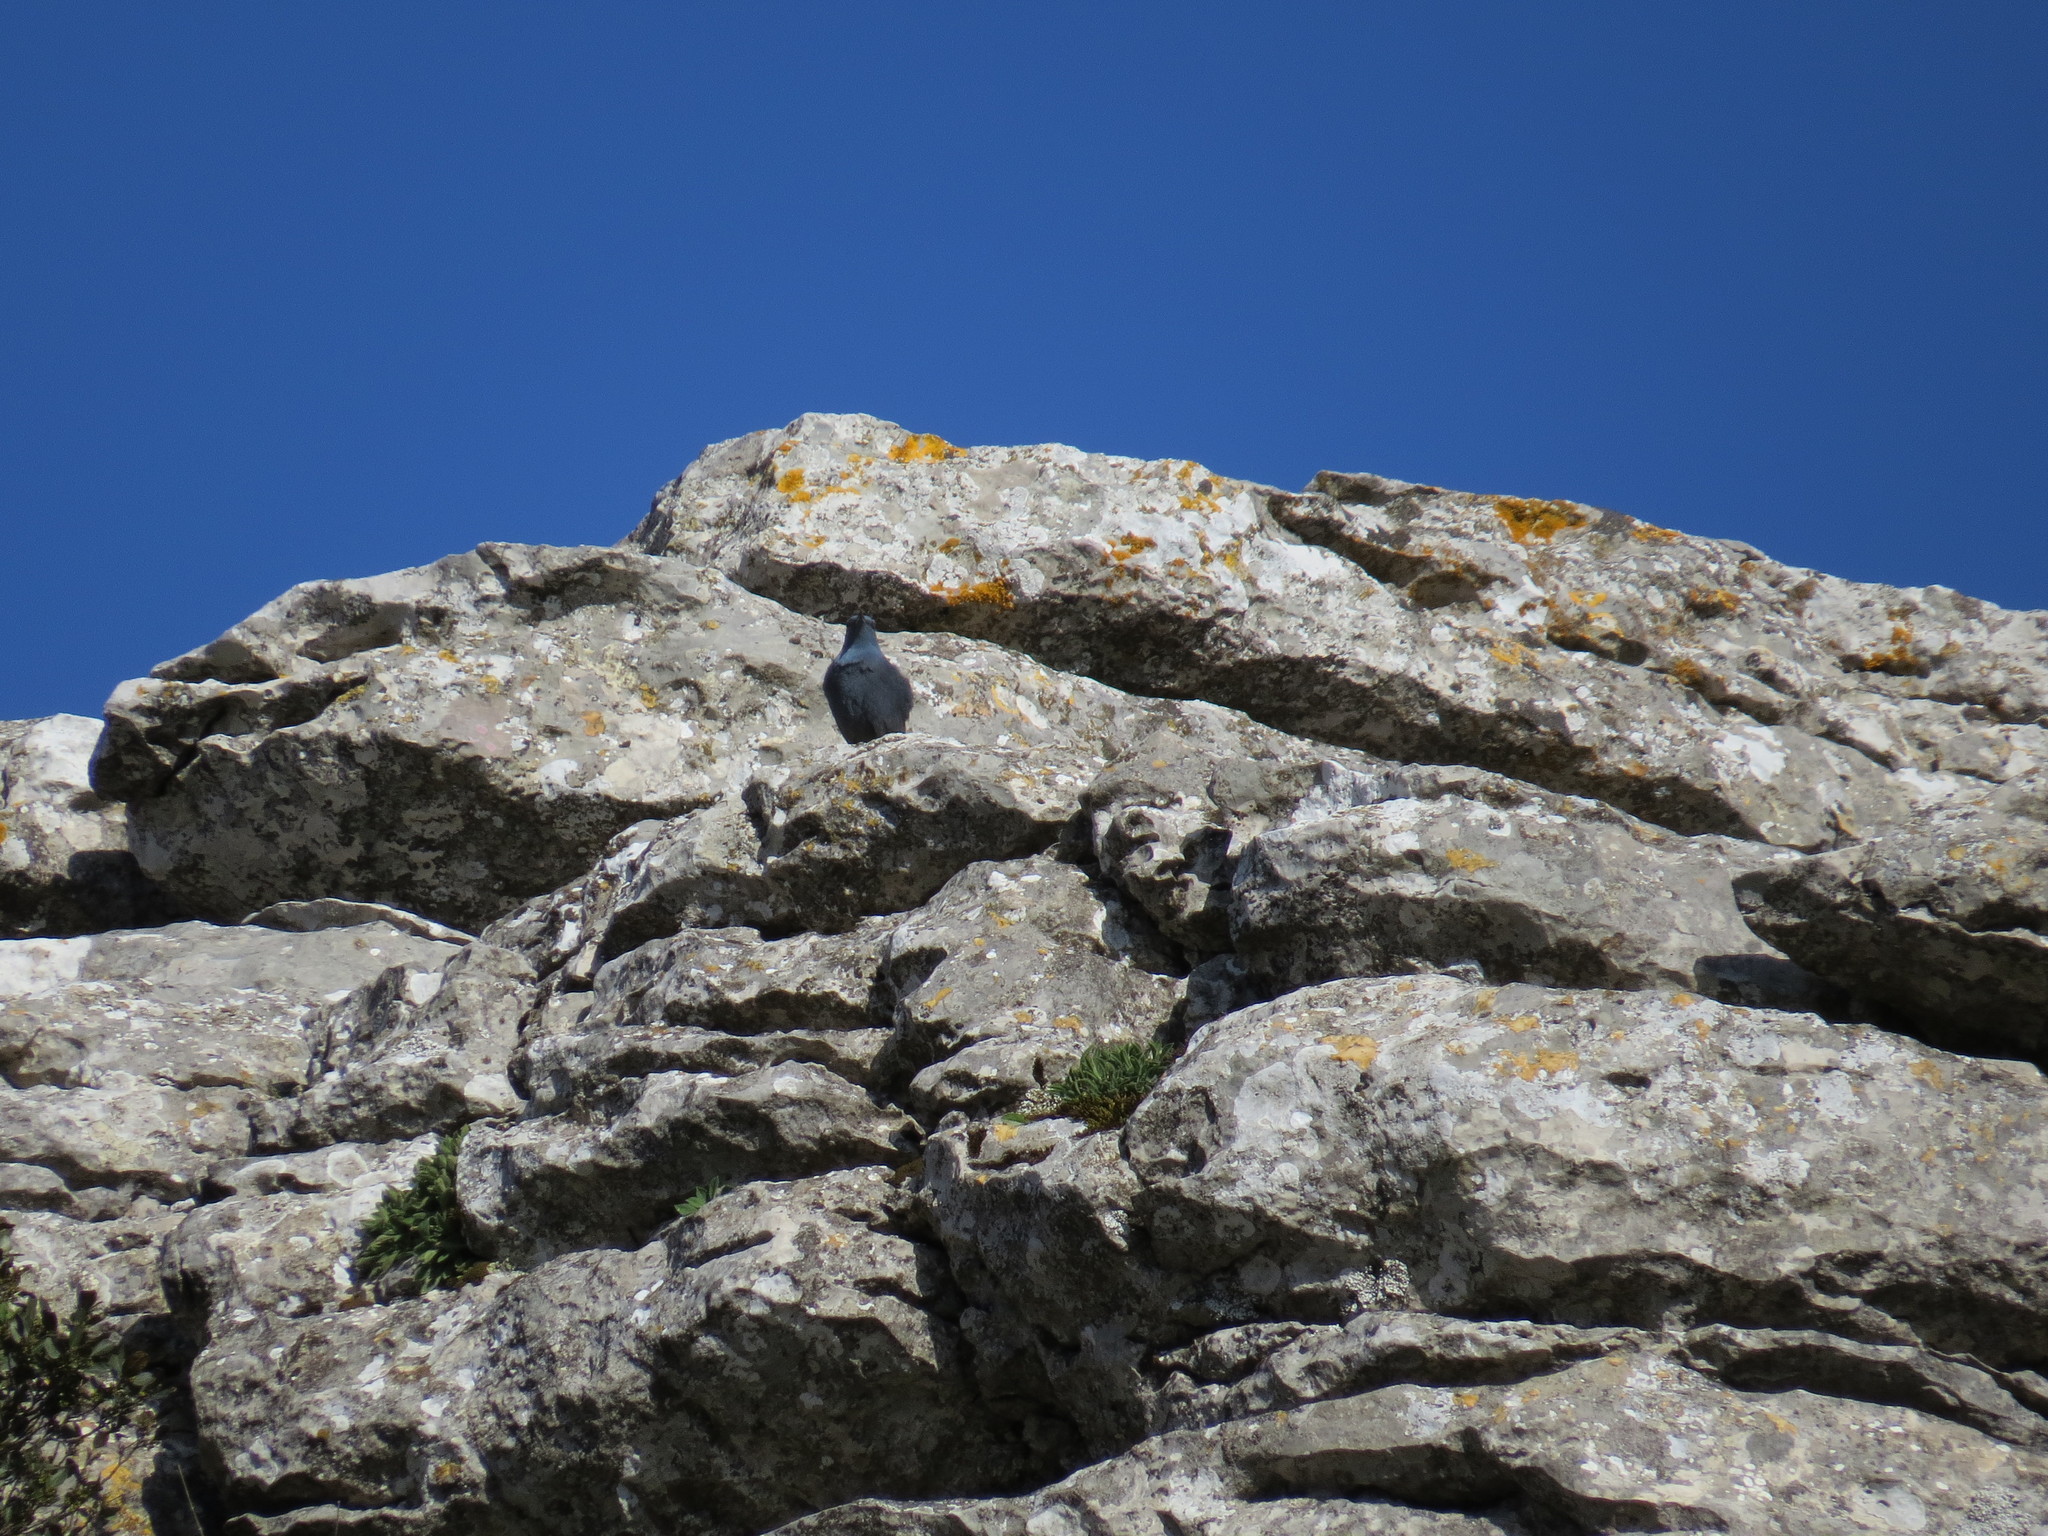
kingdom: Animalia
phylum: Chordata
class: Aves
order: Passeriformes
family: Muscicapidae
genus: Monticola
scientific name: Monticola solitarius
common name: Blue rock thrush
